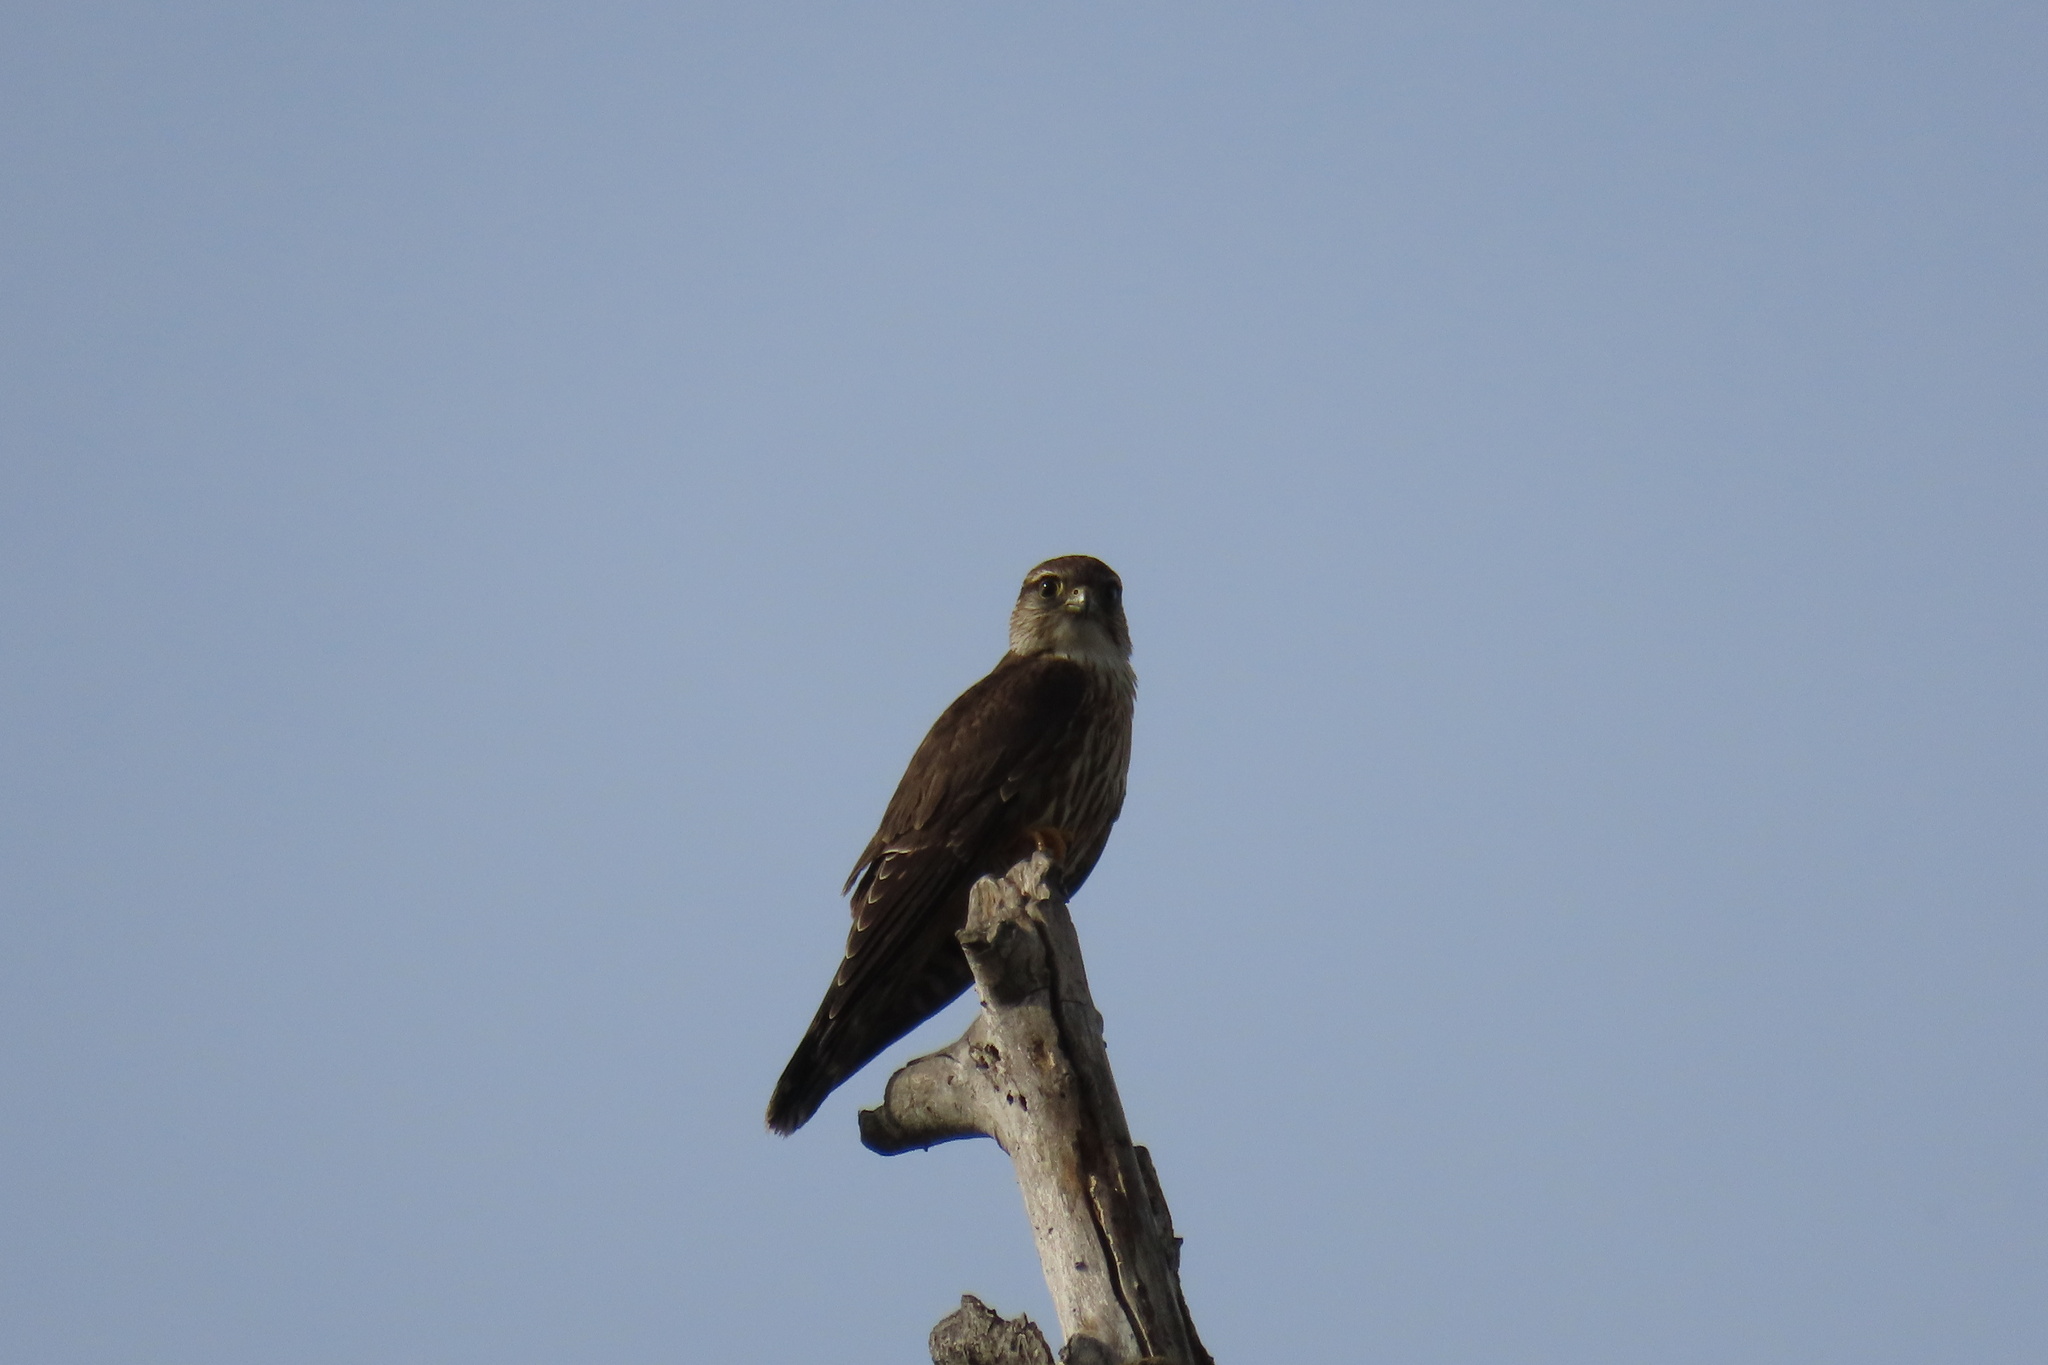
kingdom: Animalia
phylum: Chordata
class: Aves
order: Falconiformes
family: Falconidae
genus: Falco
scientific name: Falco columbarius
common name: Merlin
